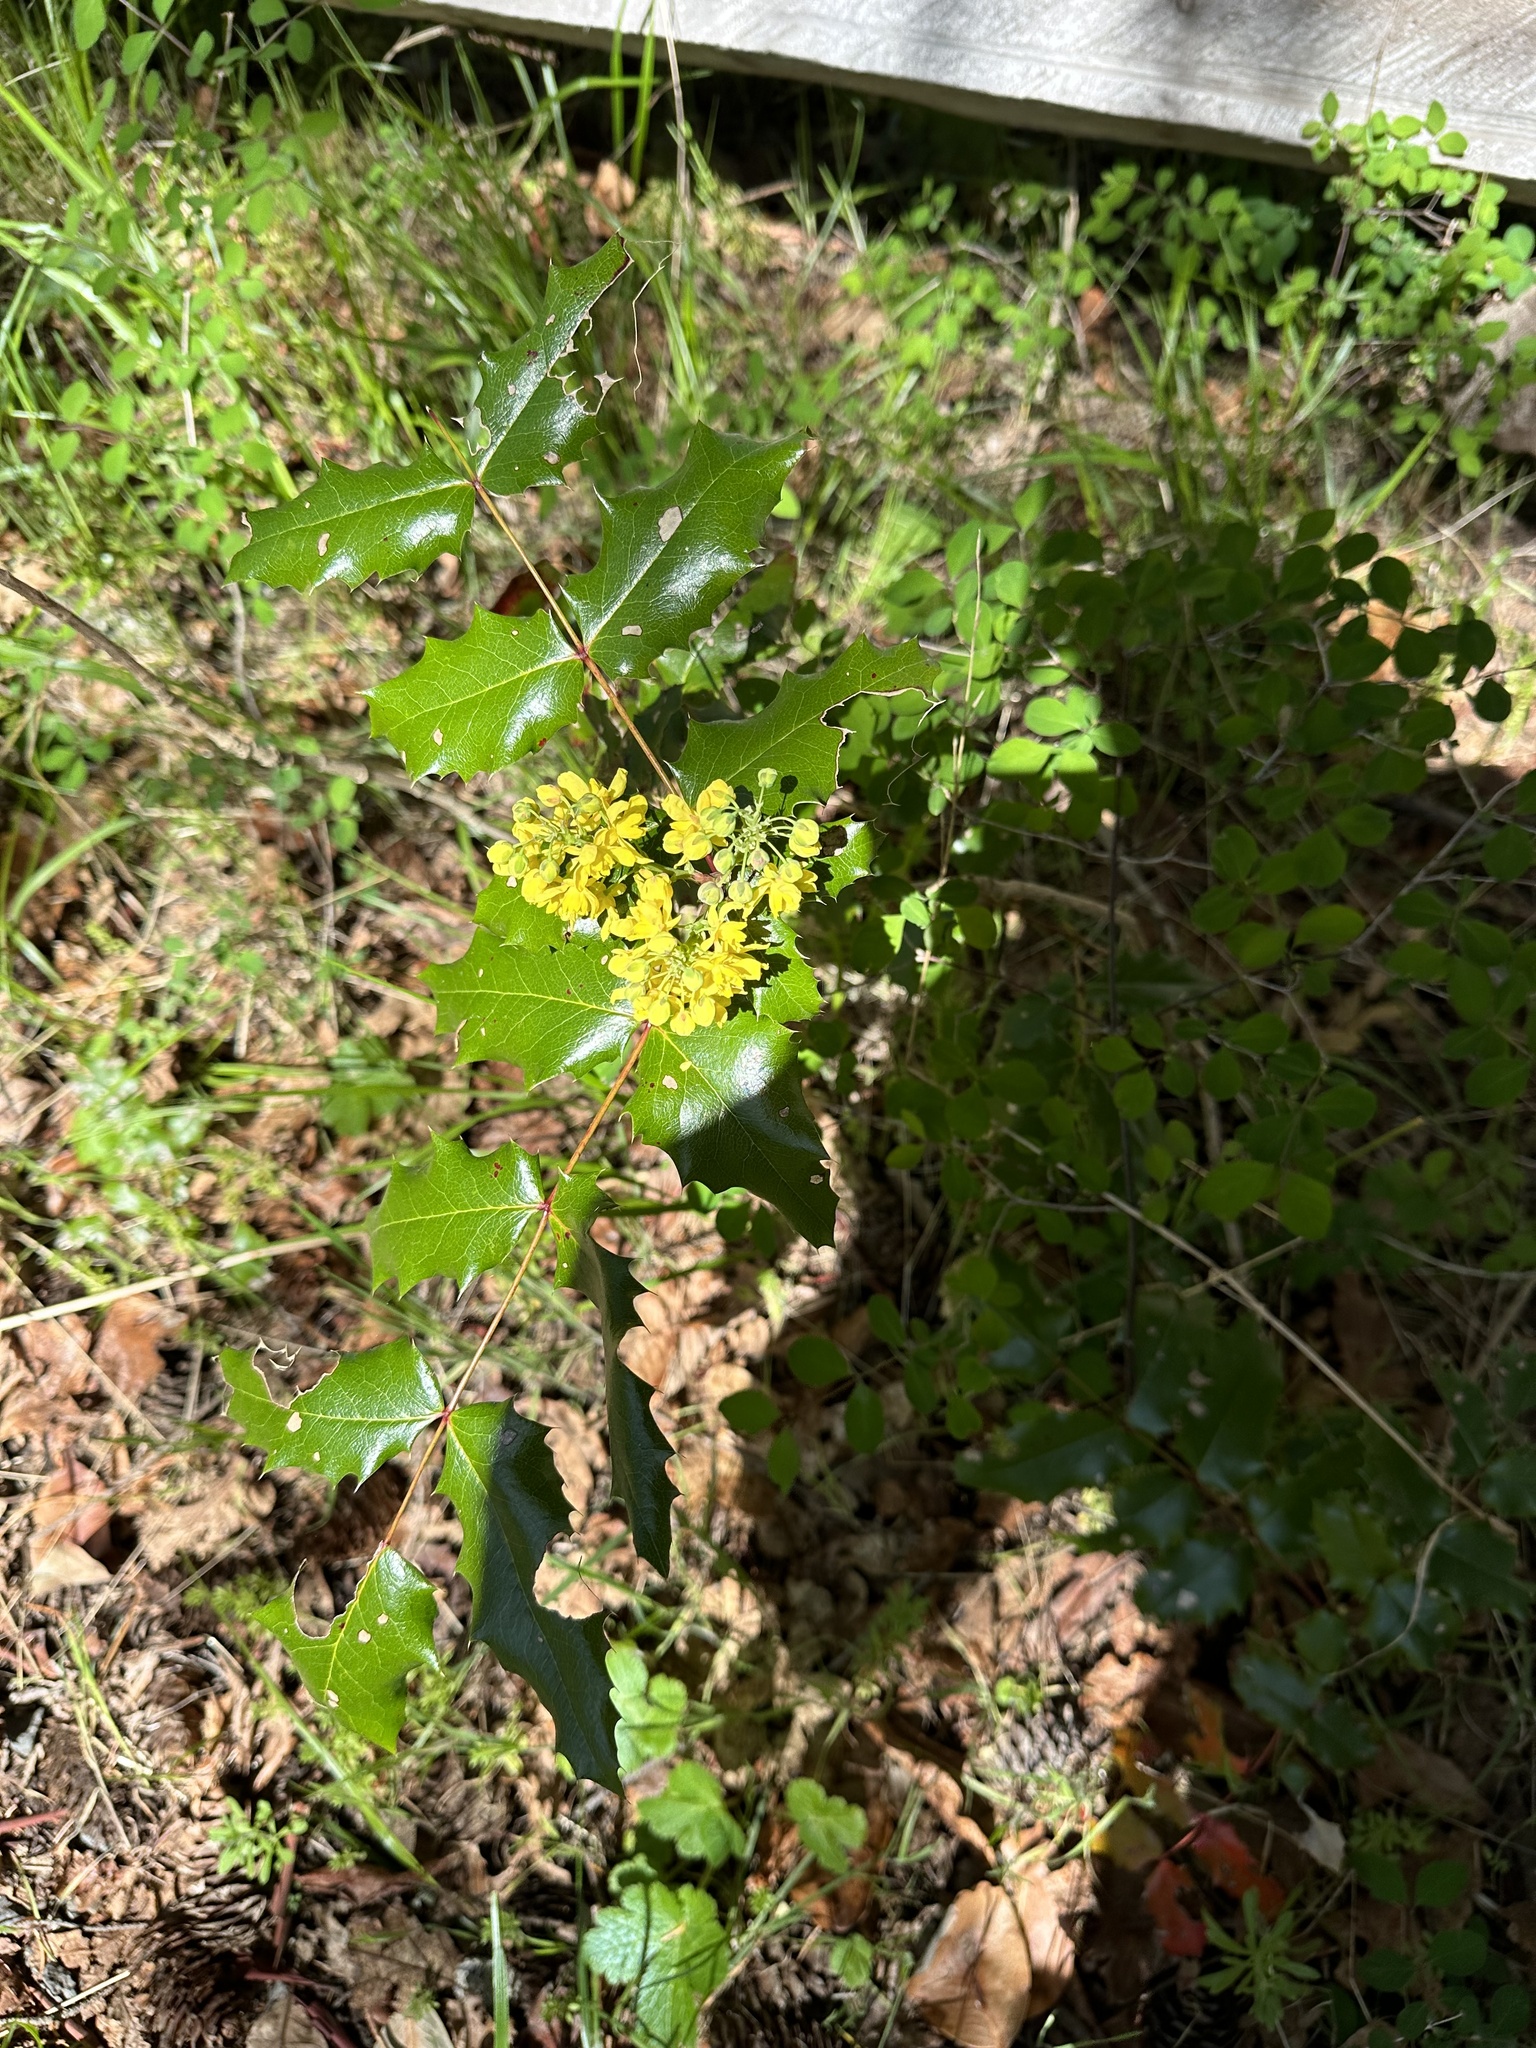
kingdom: Plantae
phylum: Tracheophyta
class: Magnoliopsida
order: Ranunculales
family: Berberidaceae
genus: Mahonia
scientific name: Mahonia aquifolium
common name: Oregon-grape
